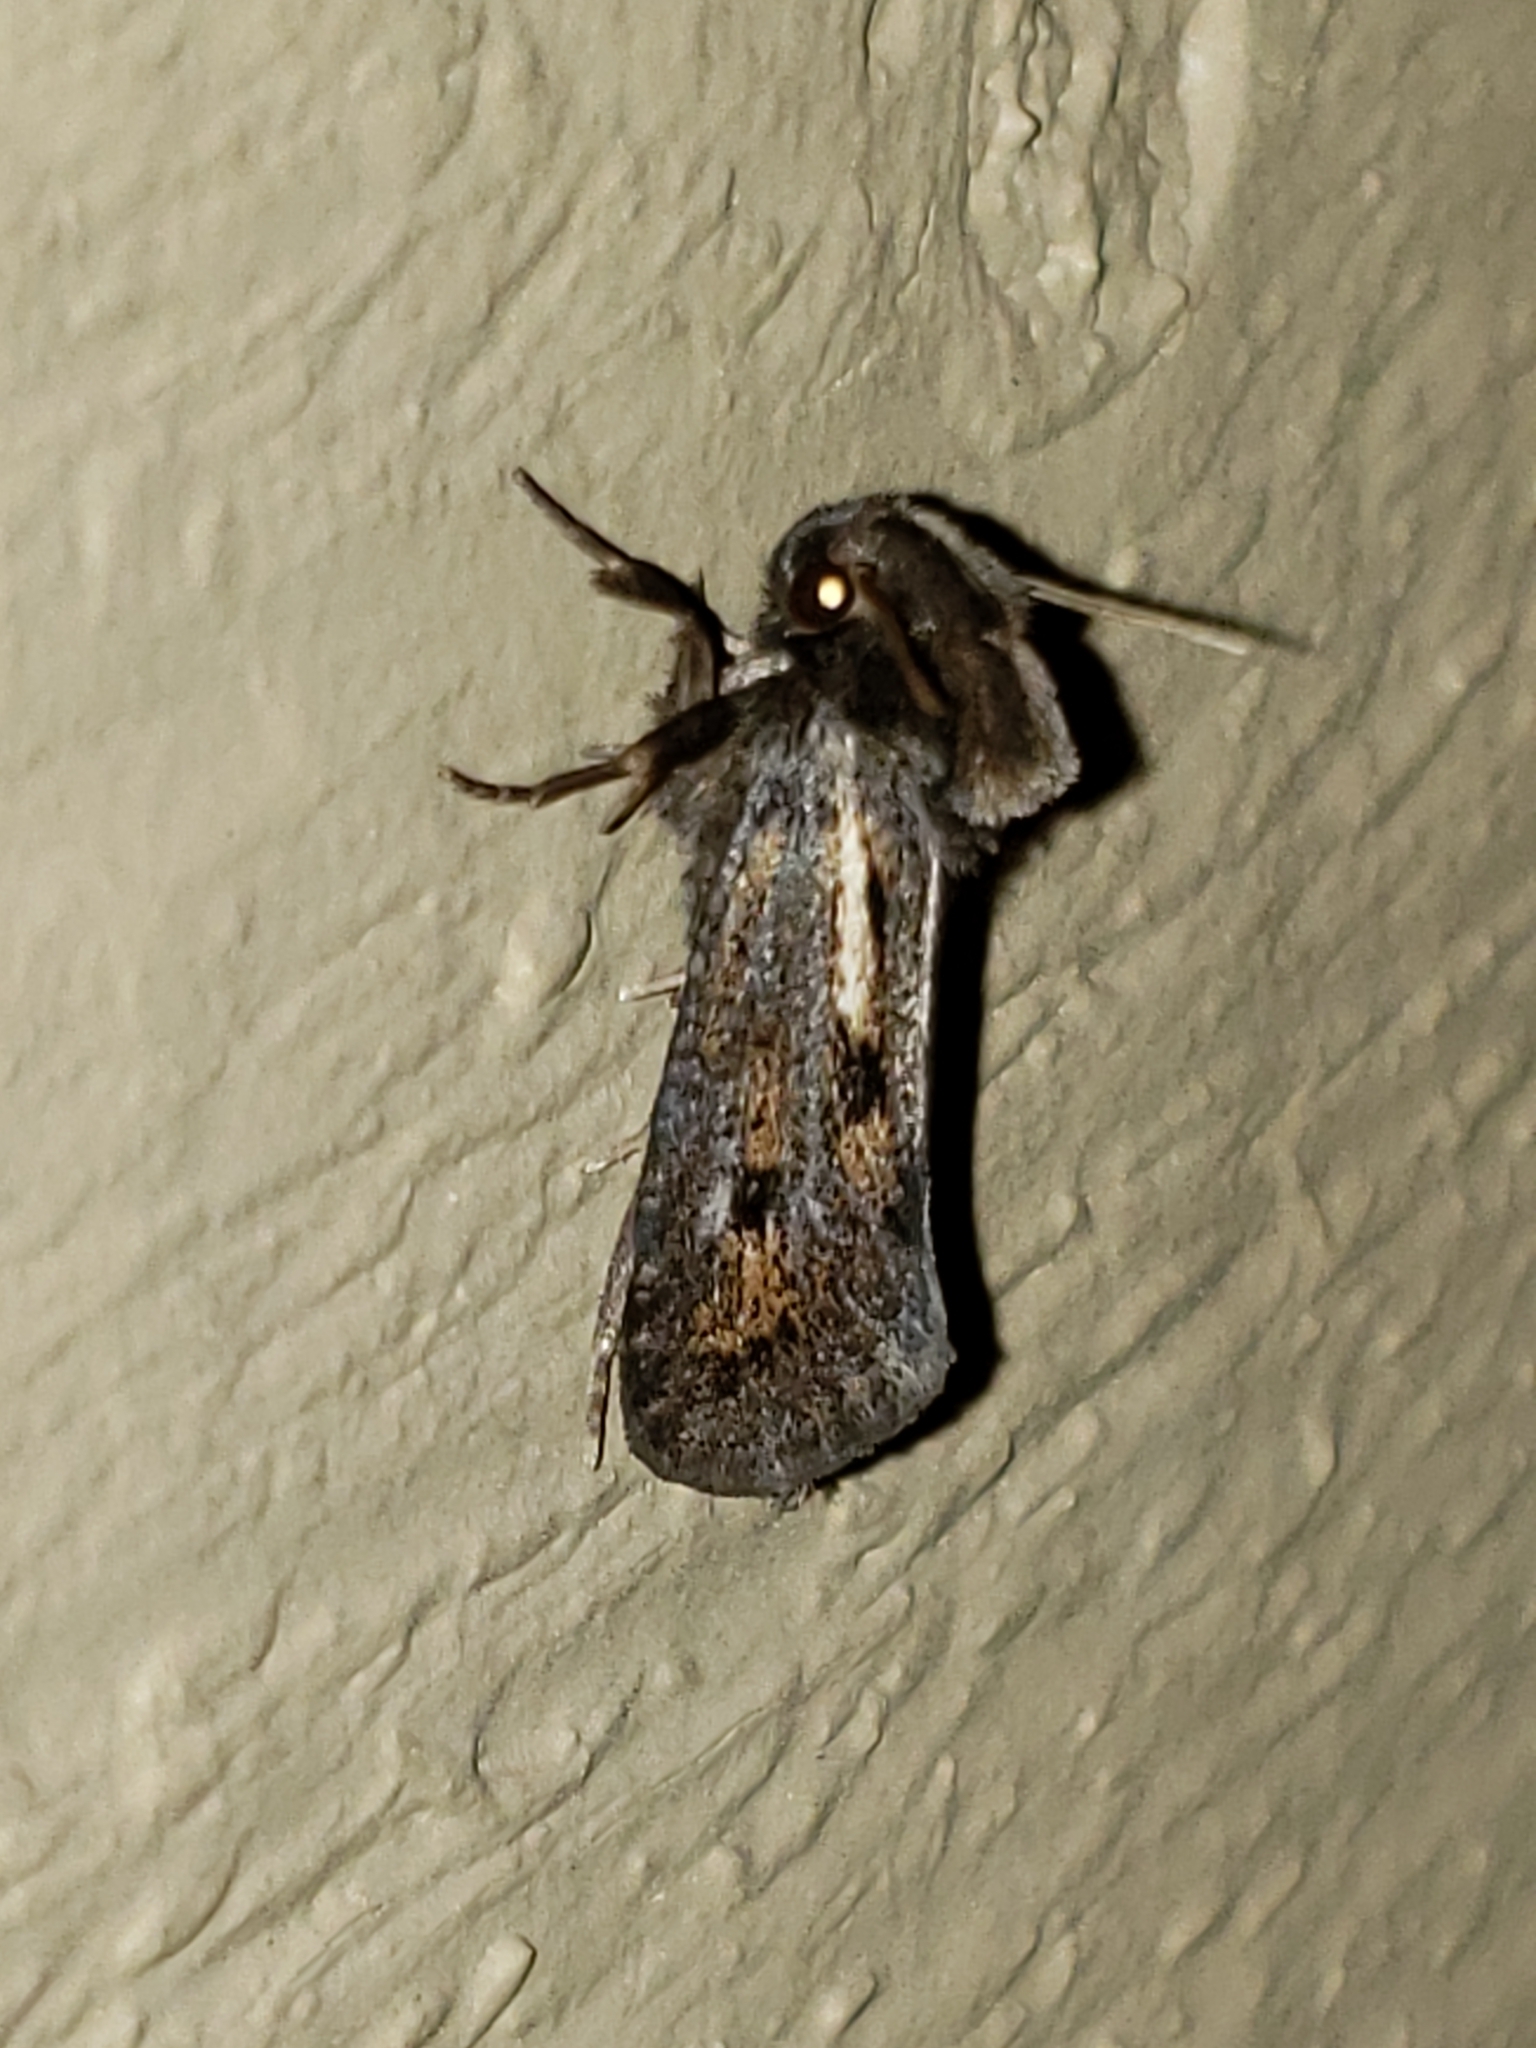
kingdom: Animalia
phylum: Arthropoda
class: Insecta
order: Lepidoptera
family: Tineidae
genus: Acrolophus
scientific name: Acrolophus popeanella
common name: Clemens' grass tubeworm moth
